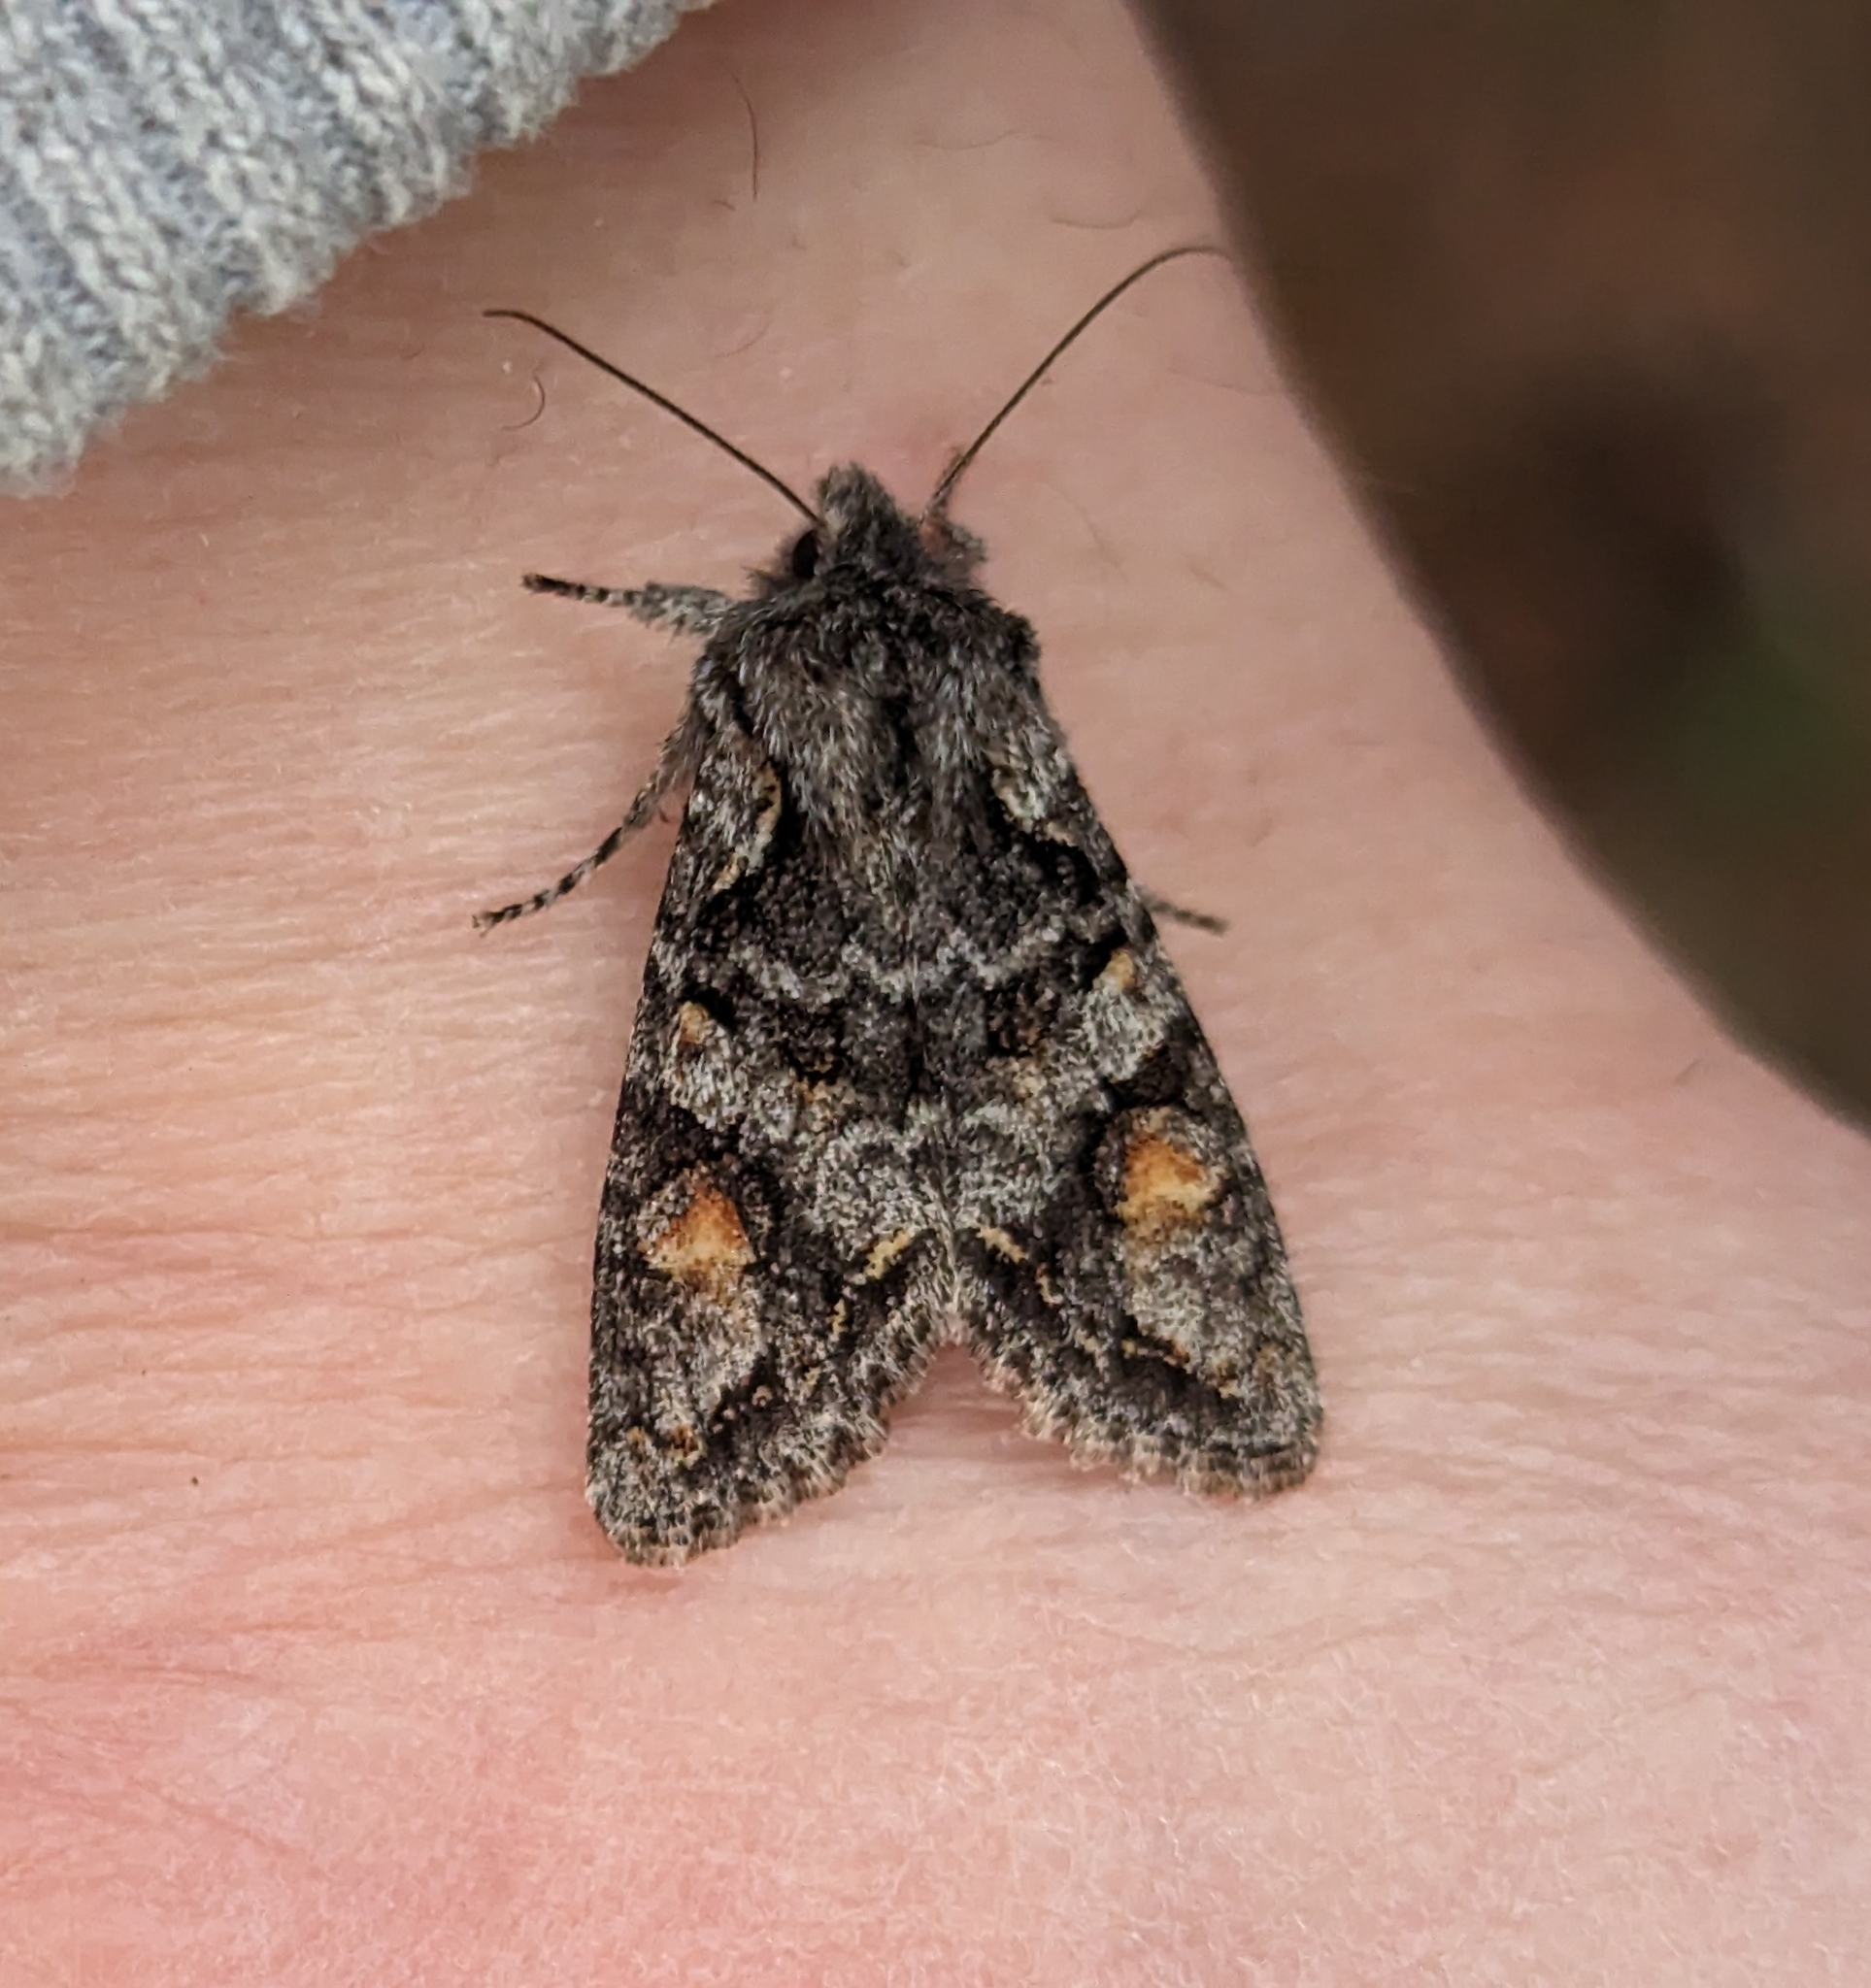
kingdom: Animalia
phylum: Arthropoda
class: Insecta
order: Lepidoptera
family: Noctuidae
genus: Egira
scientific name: Egira hiemalis
